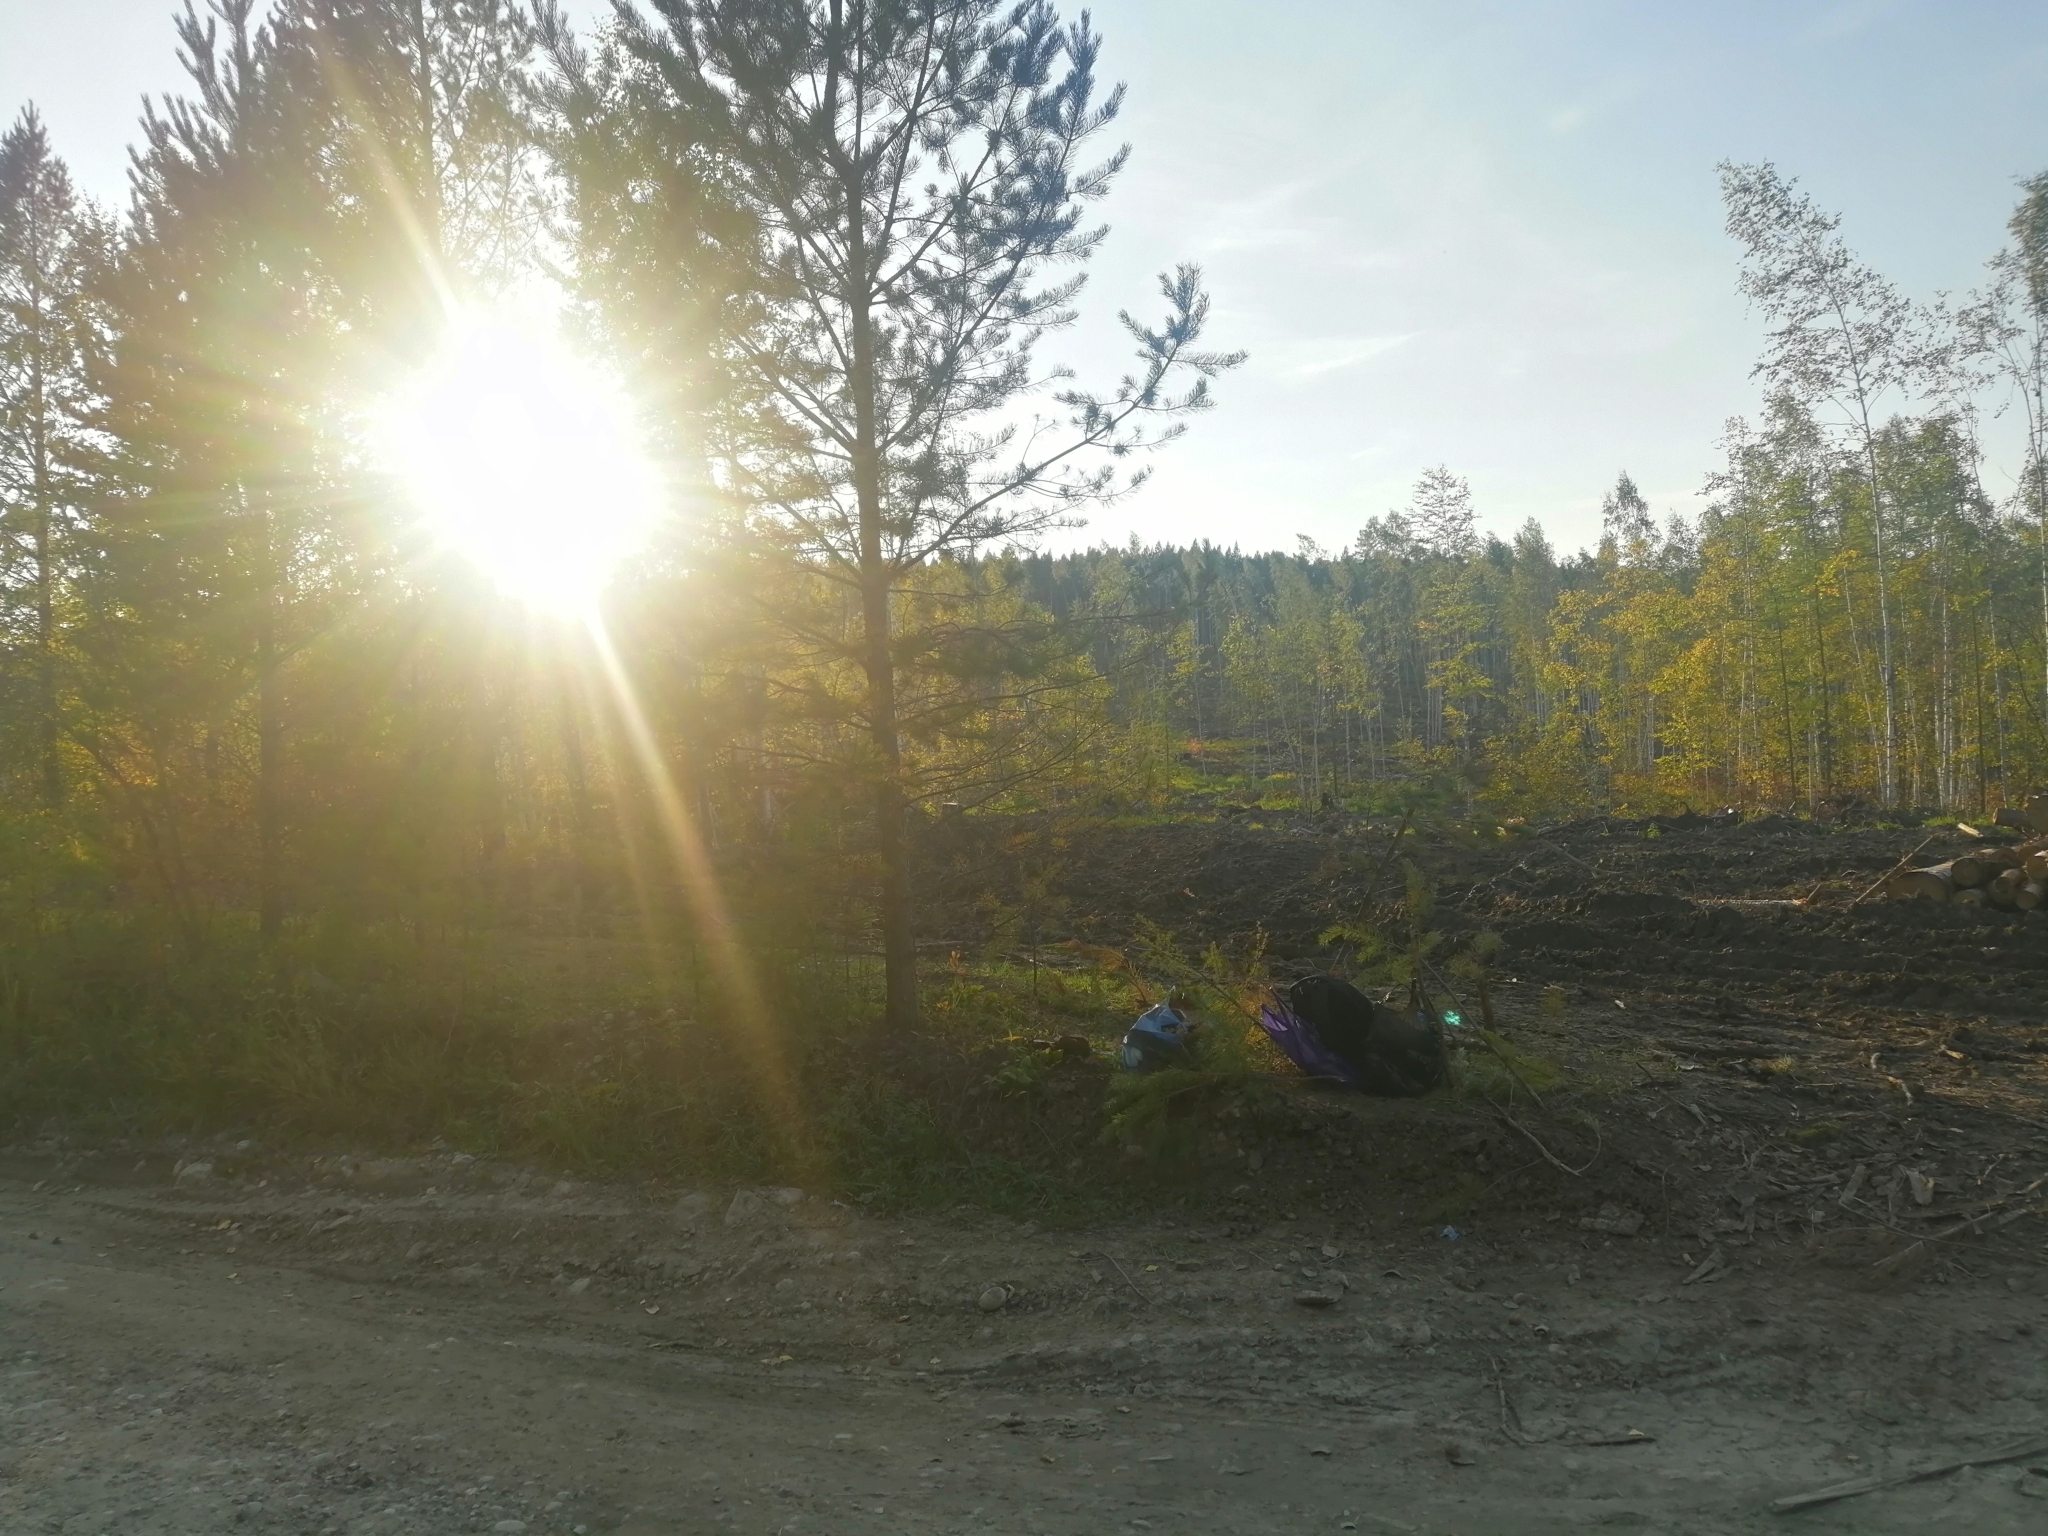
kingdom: Plantae
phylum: Tracheophyta
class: Pinopsida
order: Pinales
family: Pinaceae
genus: Pinus
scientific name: Pinus sylvestris
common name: Scots pine
